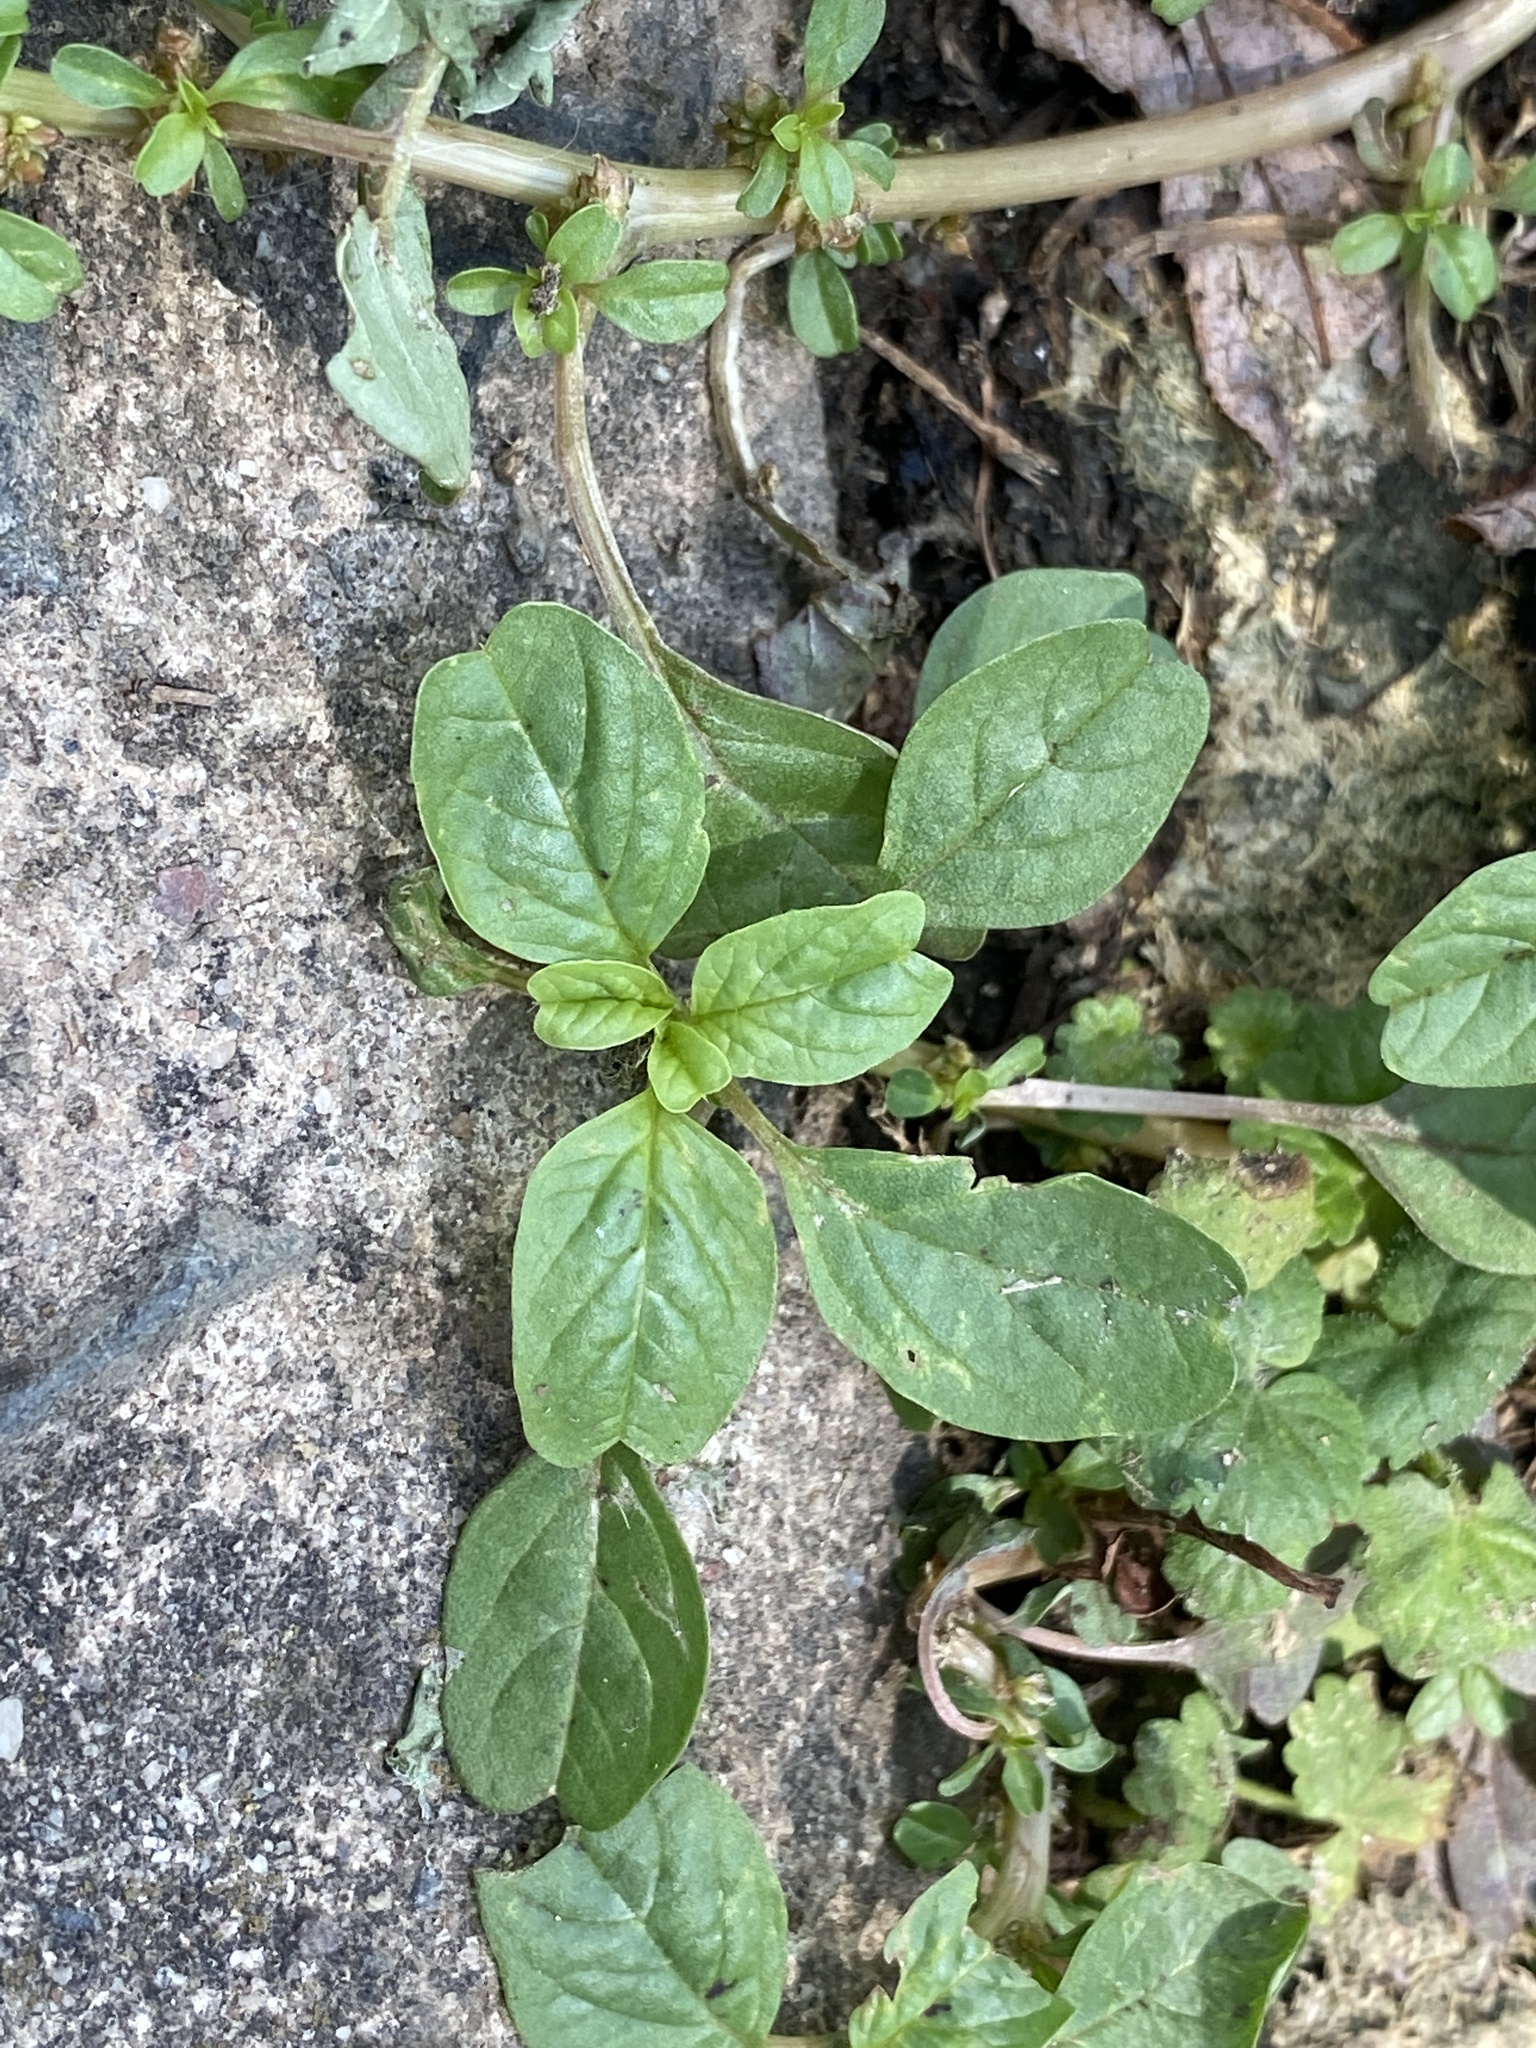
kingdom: Plantae
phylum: Tracheophyta
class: Magnoliopsida
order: Caryophyllales
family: Amaranthaceae
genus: Amaranthus
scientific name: Amaranthus blitum
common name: Purple amaranth
